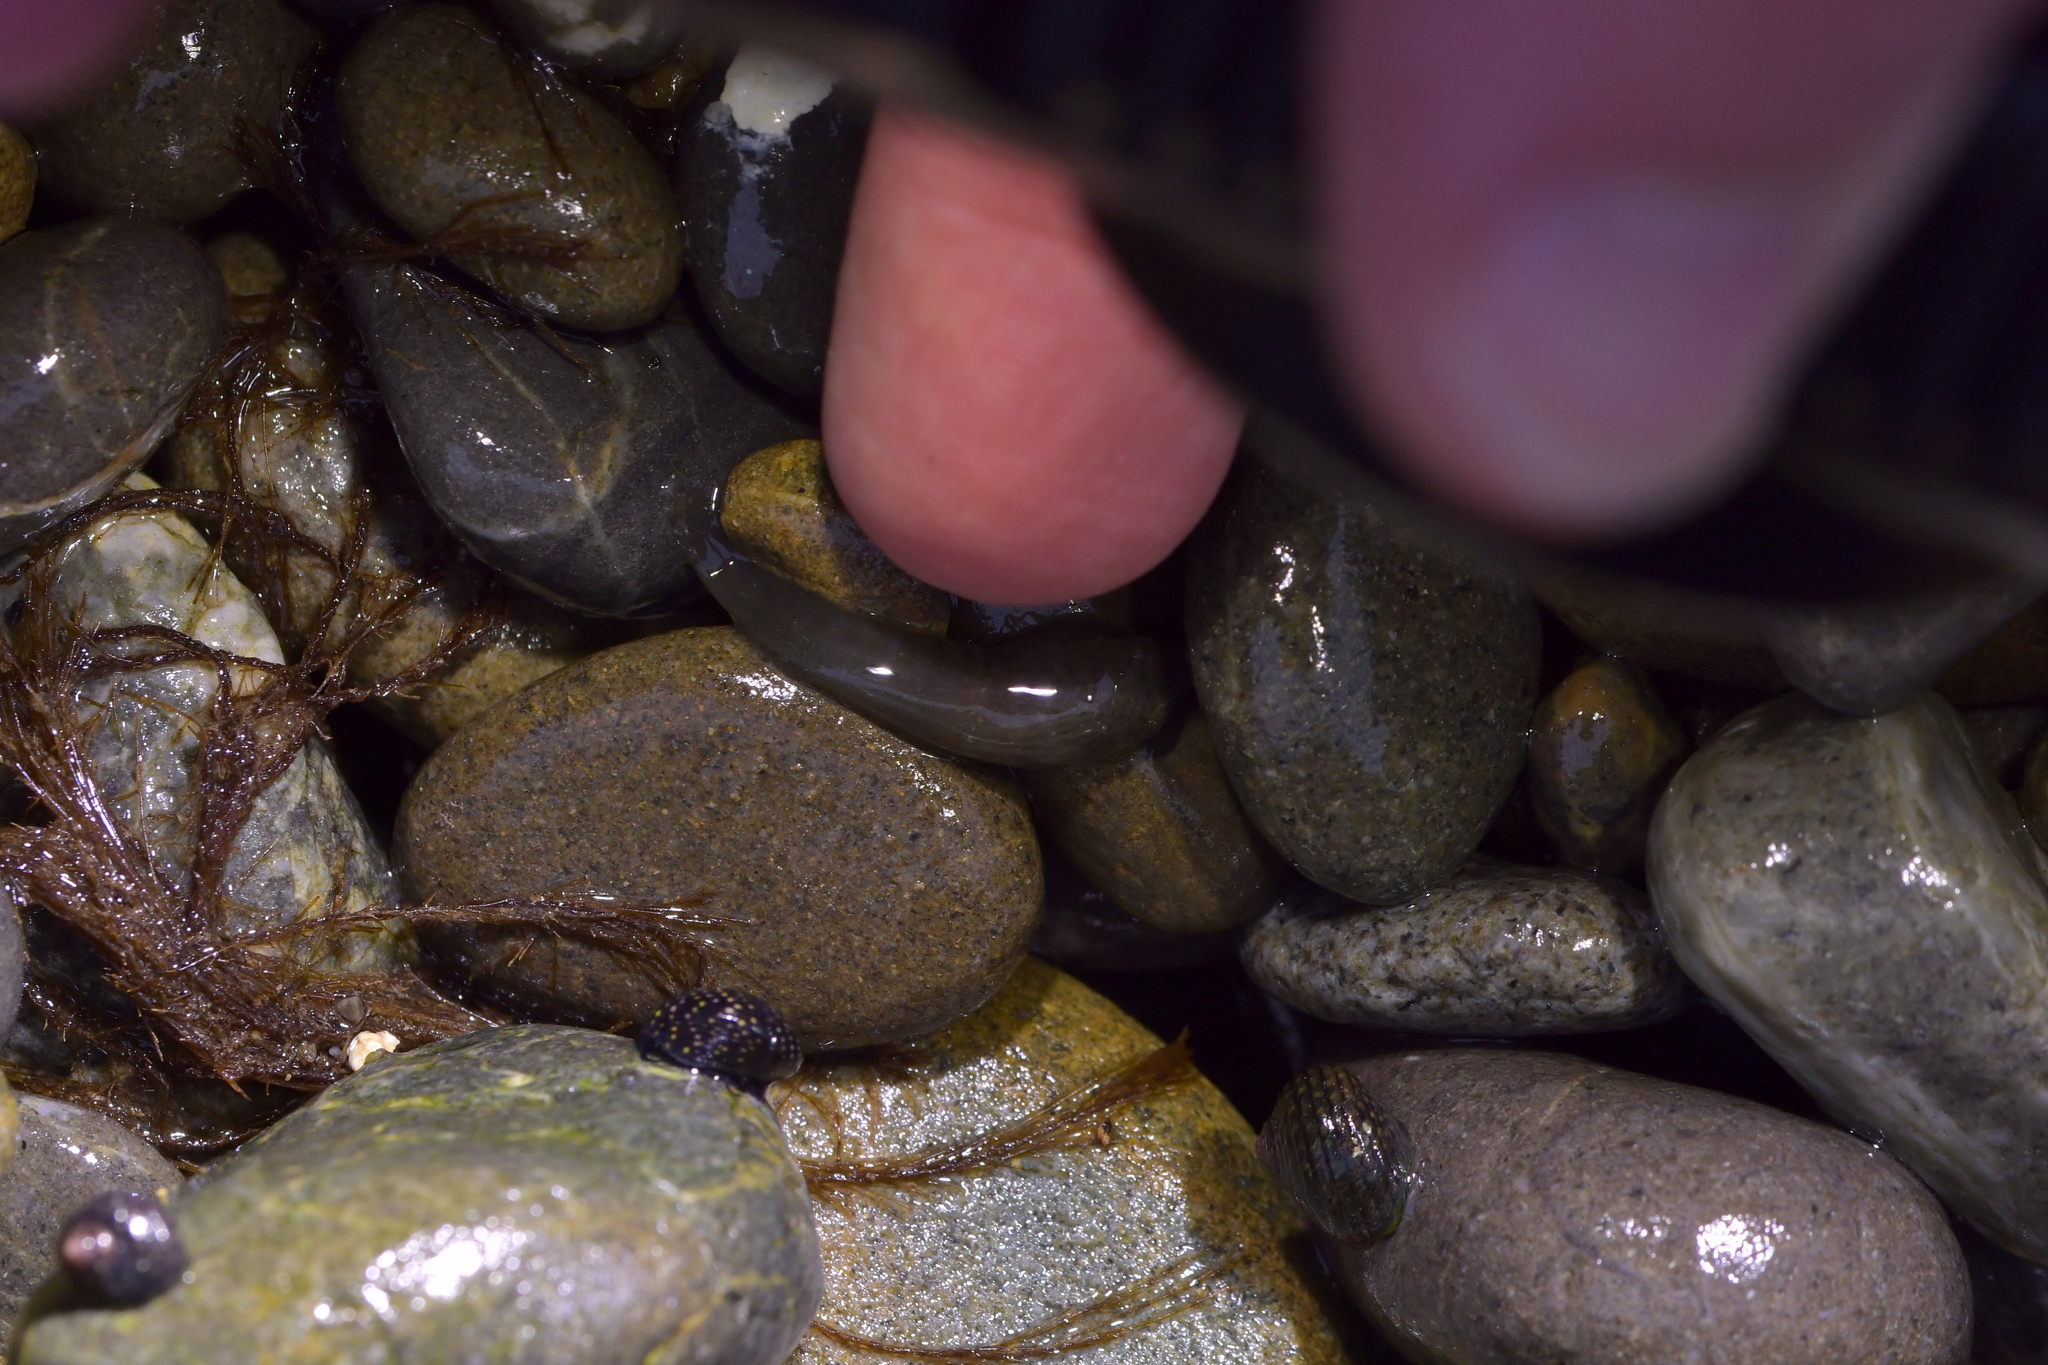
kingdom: Animalia
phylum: Chordata
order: Gobiesociformes
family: Gobiesocidae
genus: Trachelochismus
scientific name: Trachelochismus pinnulatus
